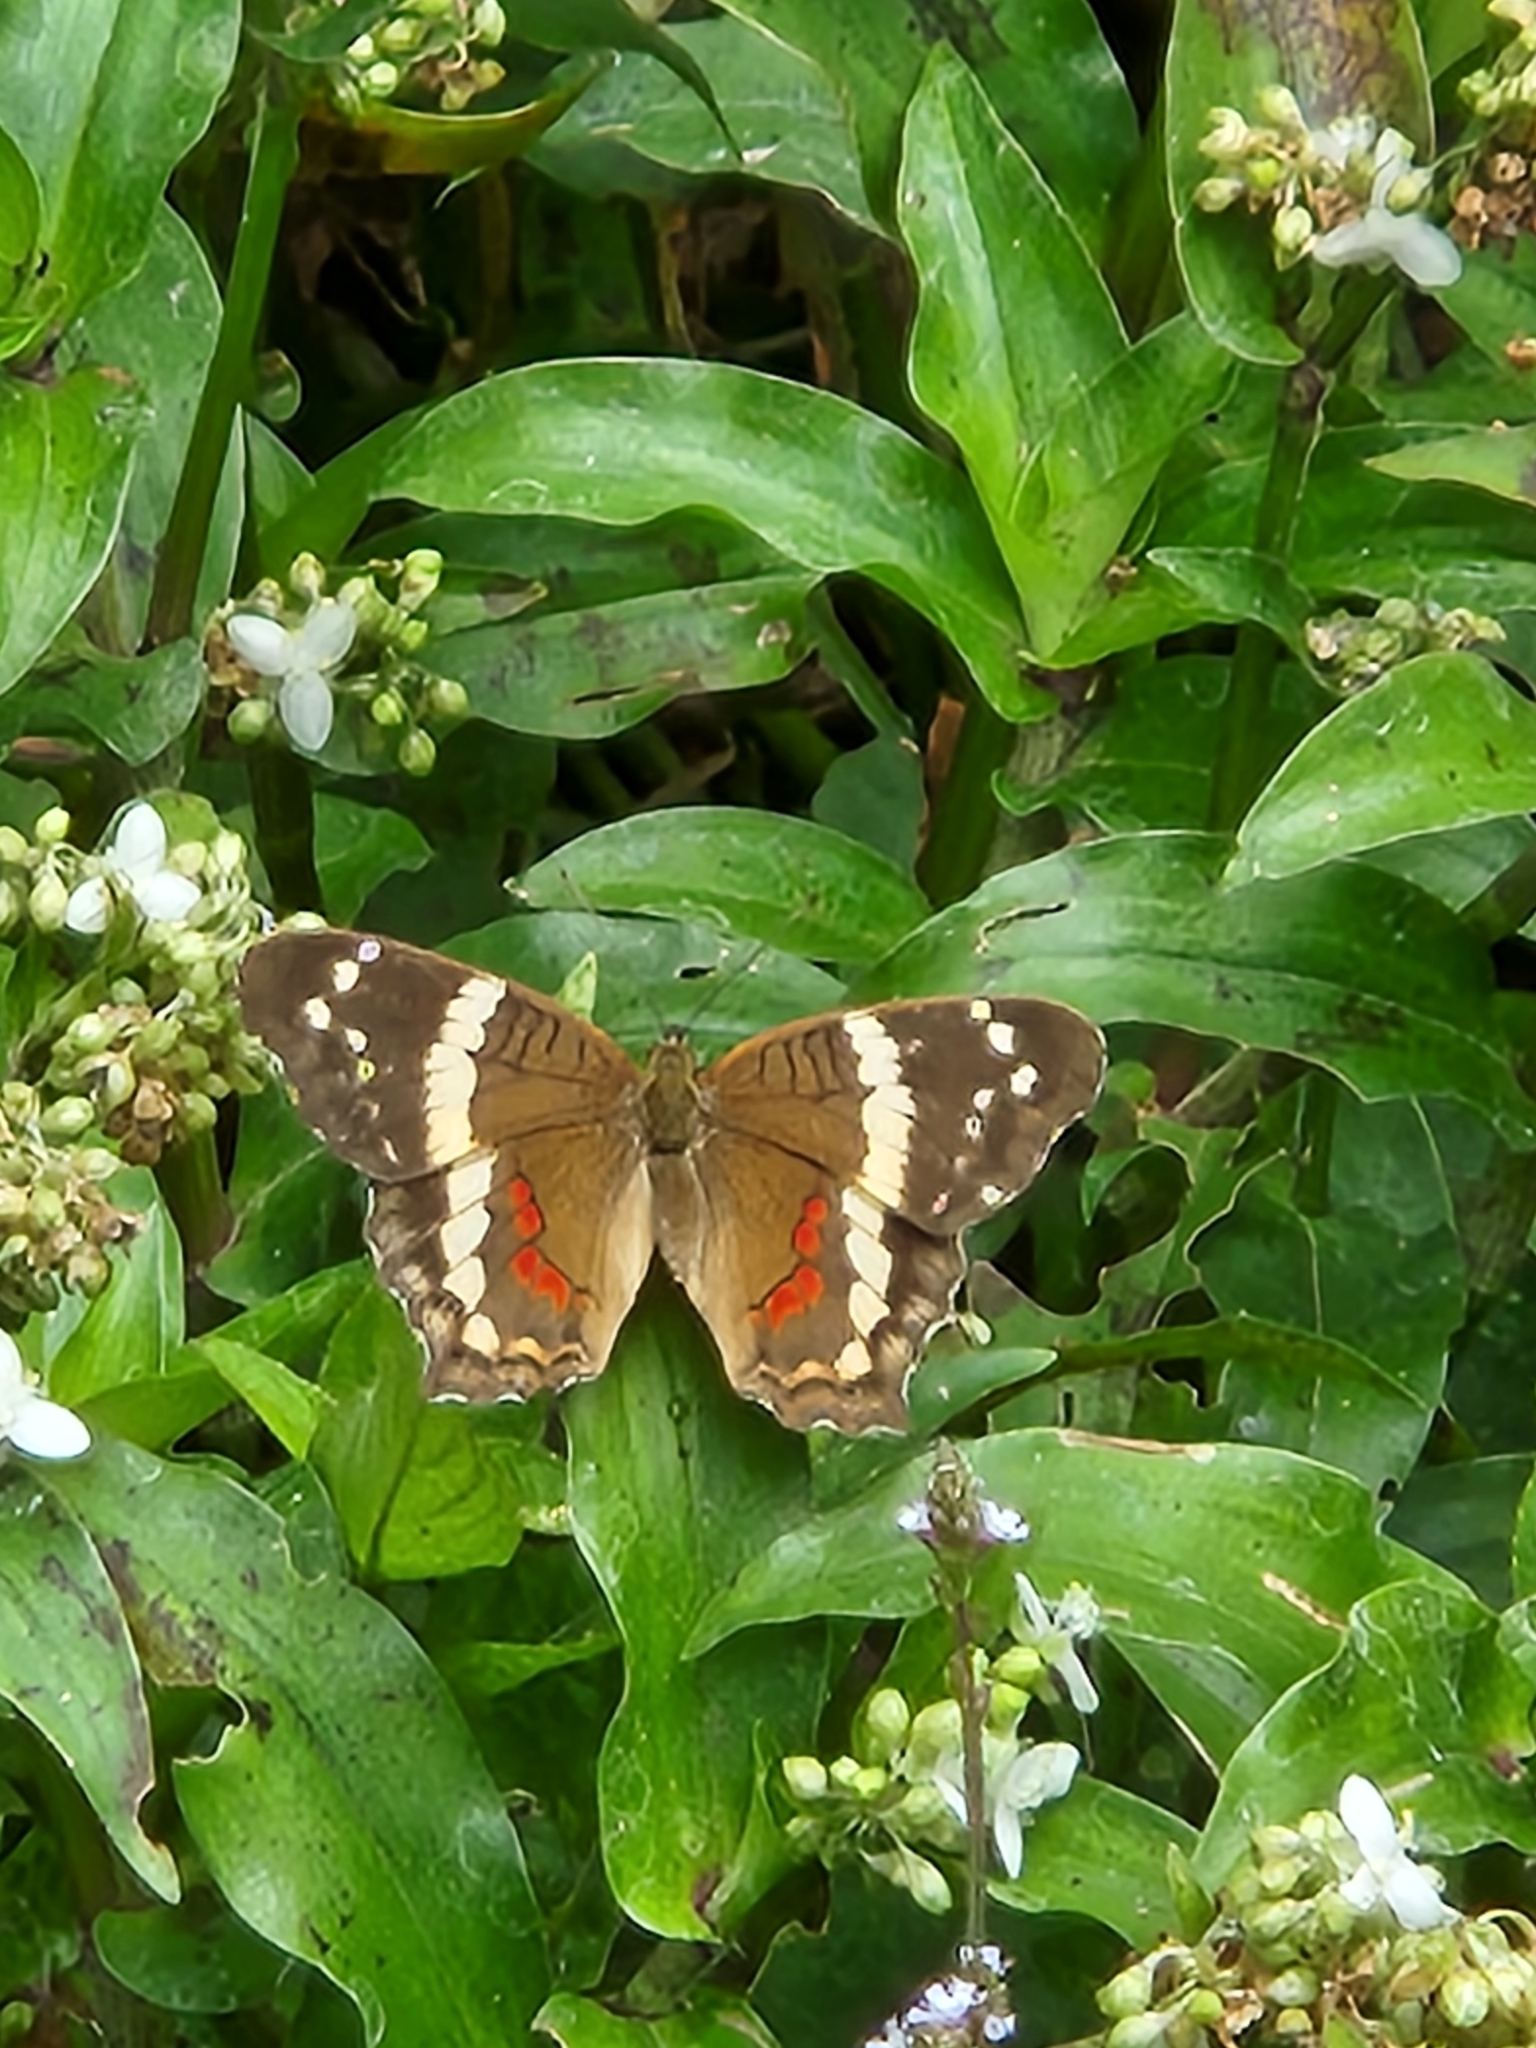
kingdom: Animalia
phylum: Arthropoda
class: Insecta
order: Lepidoptera
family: Nymphalidae
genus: Anartia
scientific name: Anartia fatima
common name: Banded peacock
